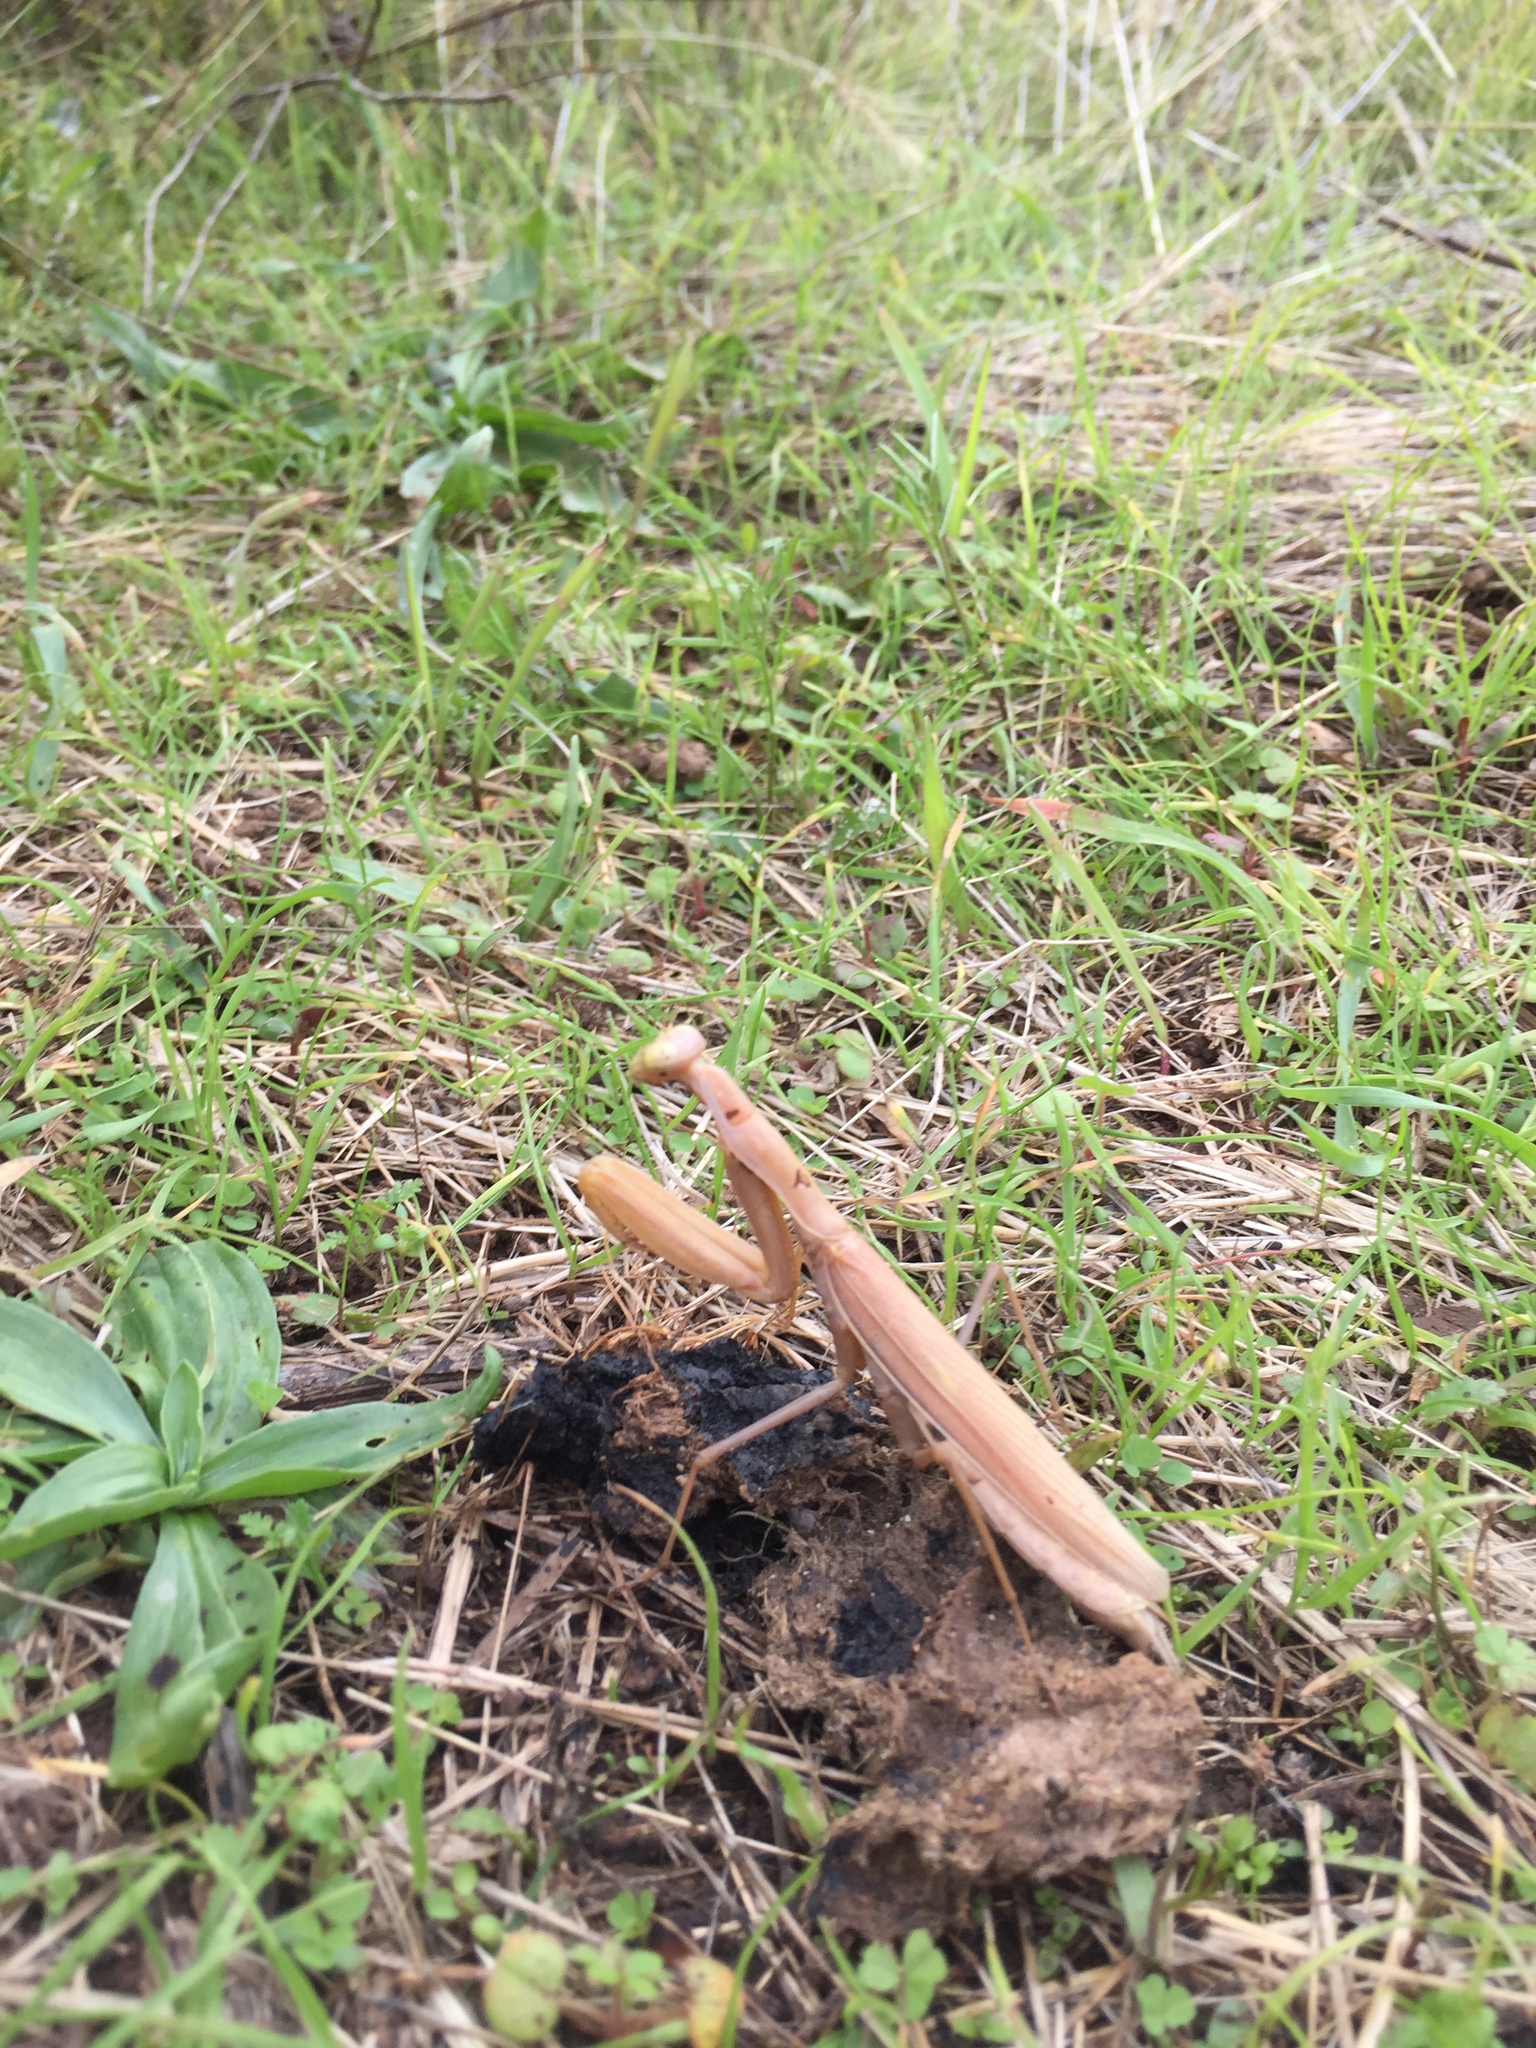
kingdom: Animalia
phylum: Arthropoda
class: Insecta
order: Mantodea
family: Mantidae
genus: Mantis
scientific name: Mantis religiosa
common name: Praying mantis
